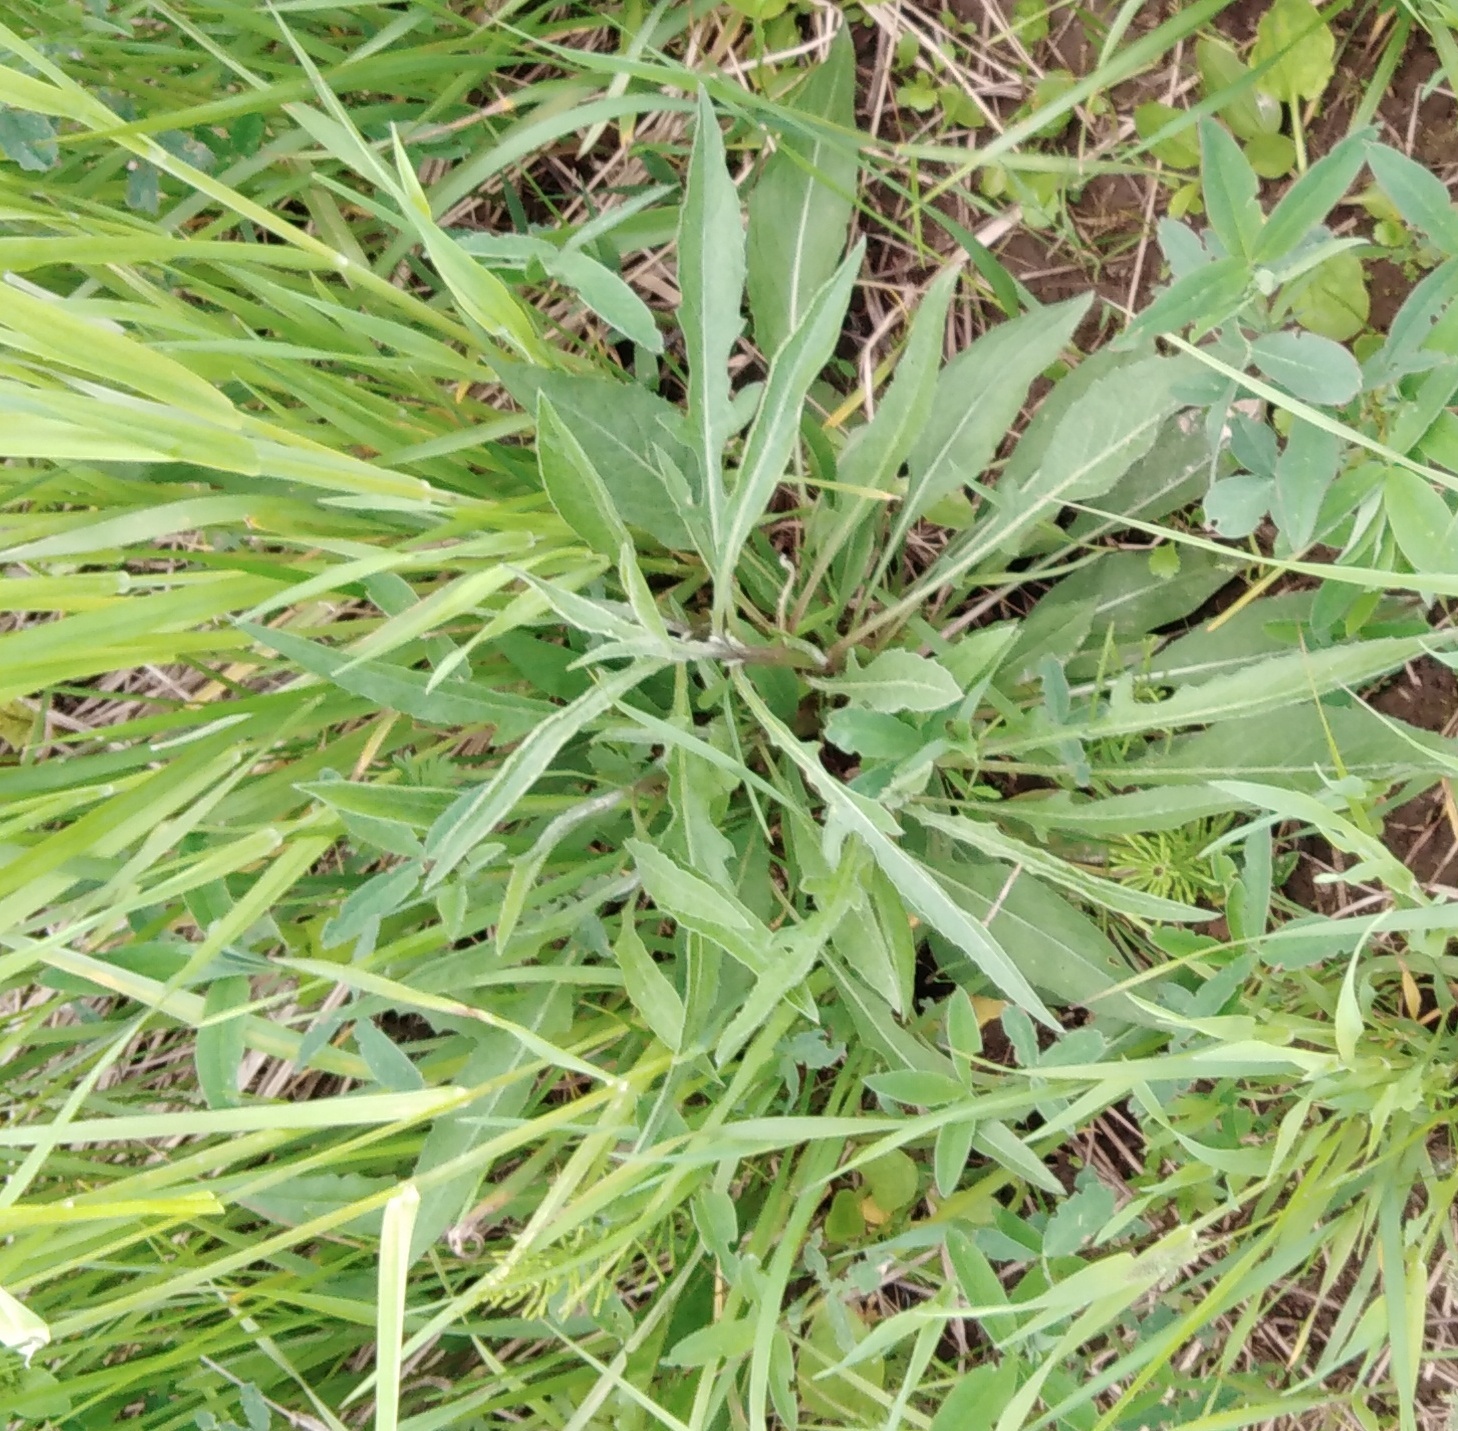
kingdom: Plantae
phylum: Tracheophyta
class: Magnoliopsida
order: Asterales
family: Asteraceae
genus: Solidago
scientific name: Solidago canadensis
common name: Canada goldenrod
